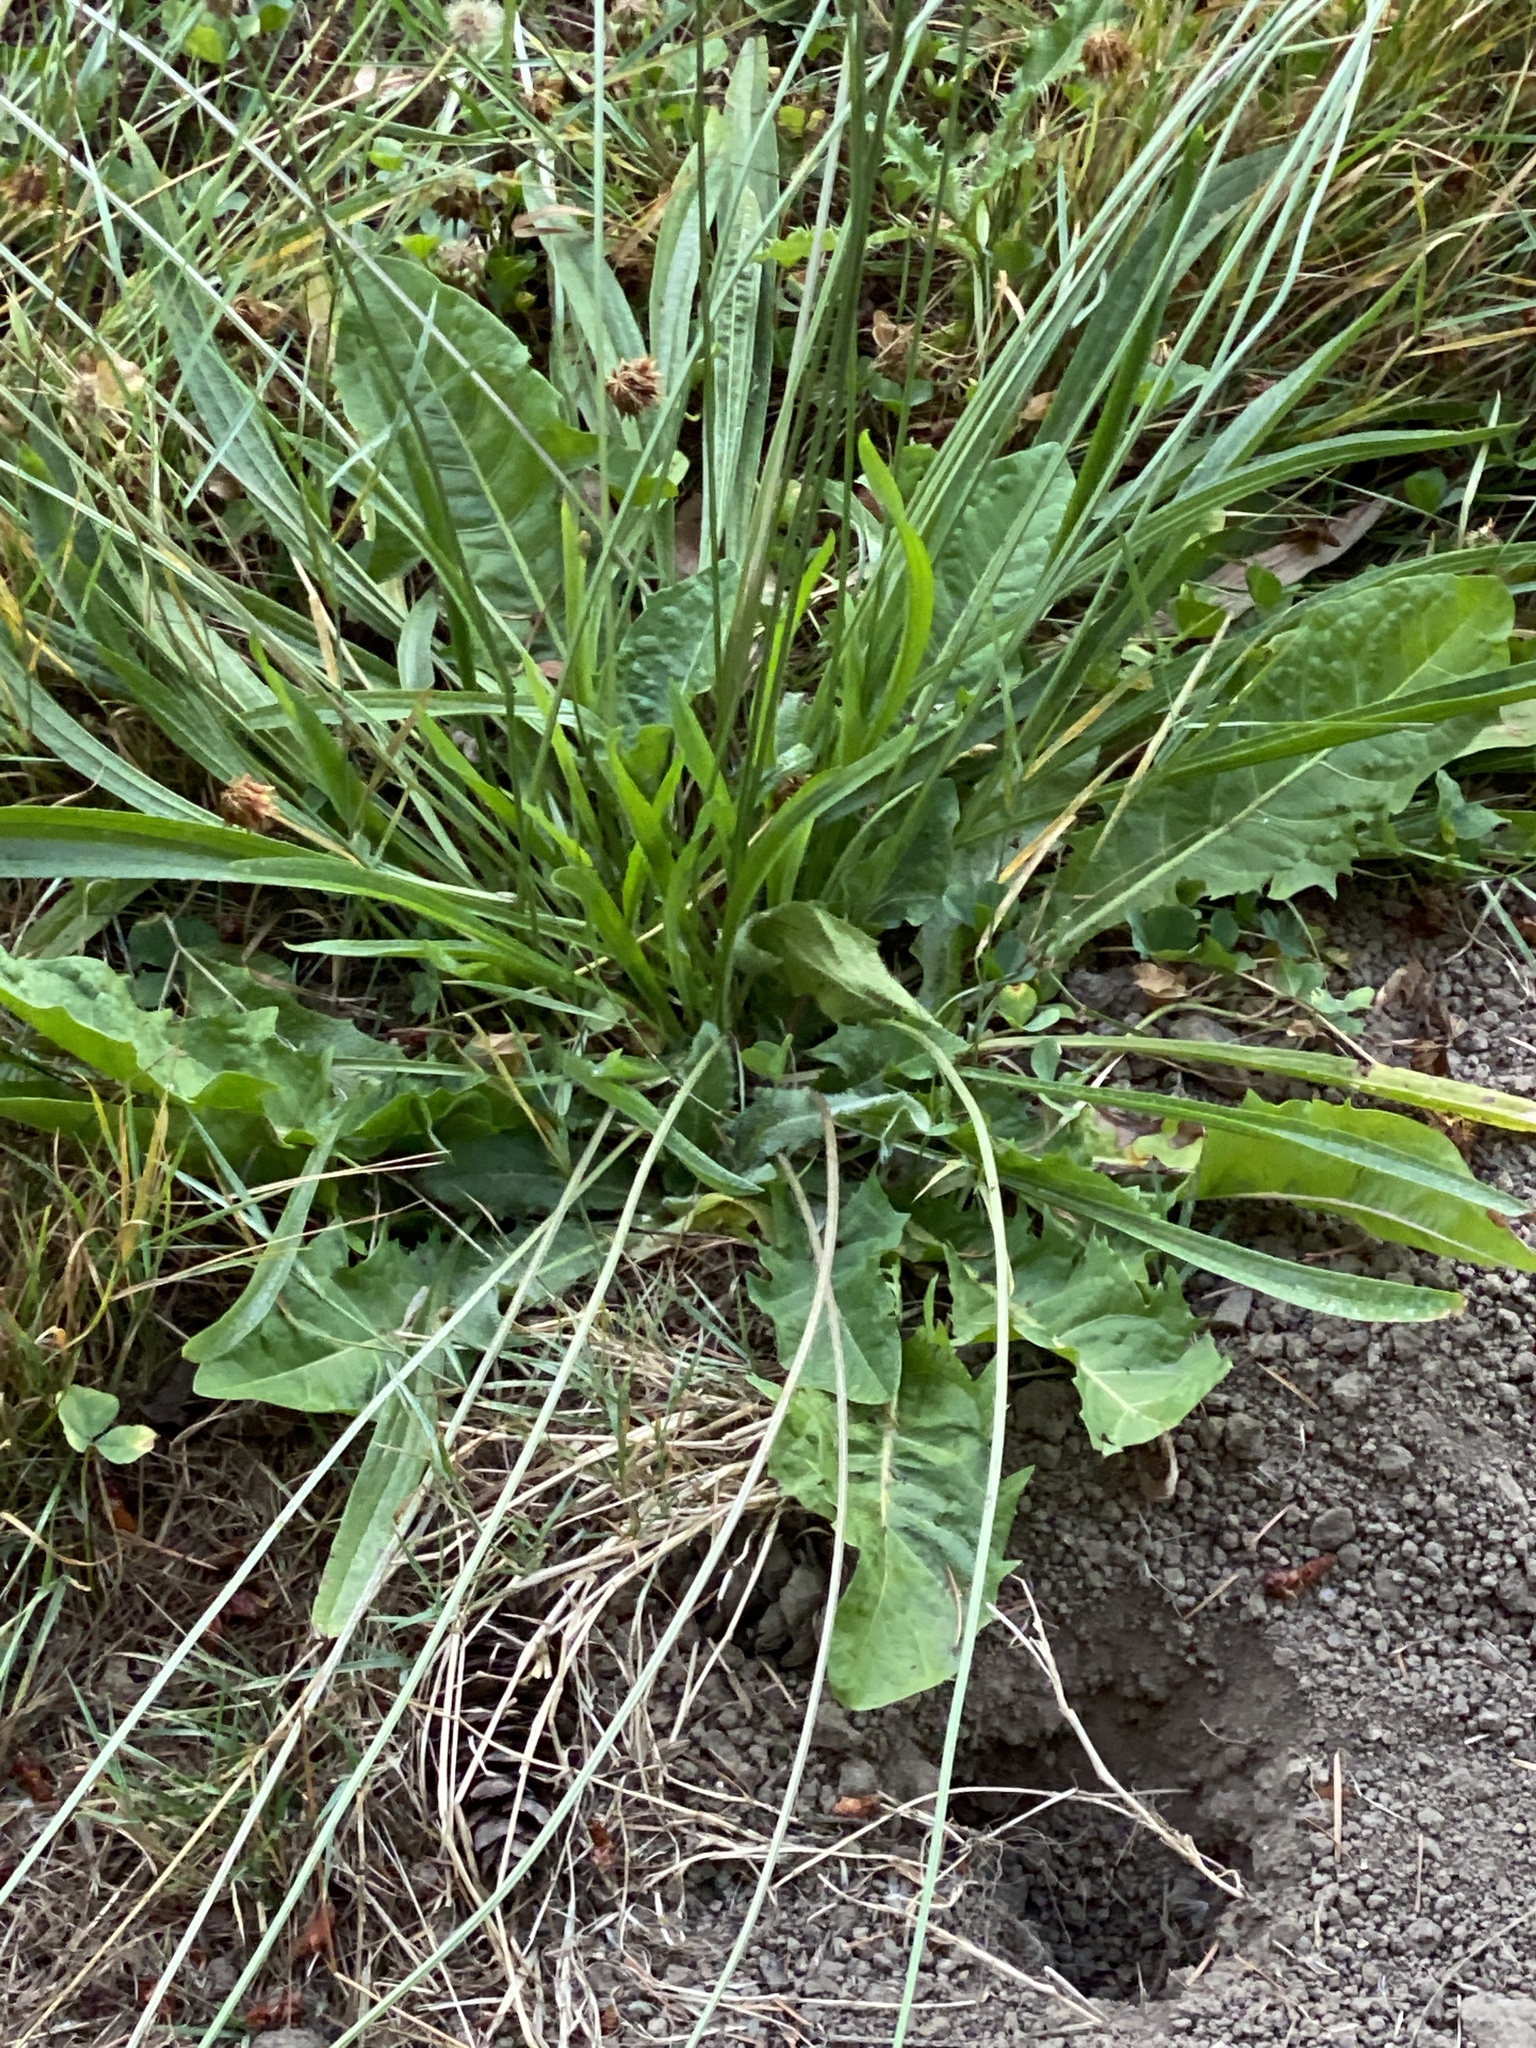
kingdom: Plantae
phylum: Tracheophyta
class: Magnoliopsida
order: Lamiales
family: Plantaginaceae
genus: Plantago
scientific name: Plantago lanceolata
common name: Ribwort plantain
